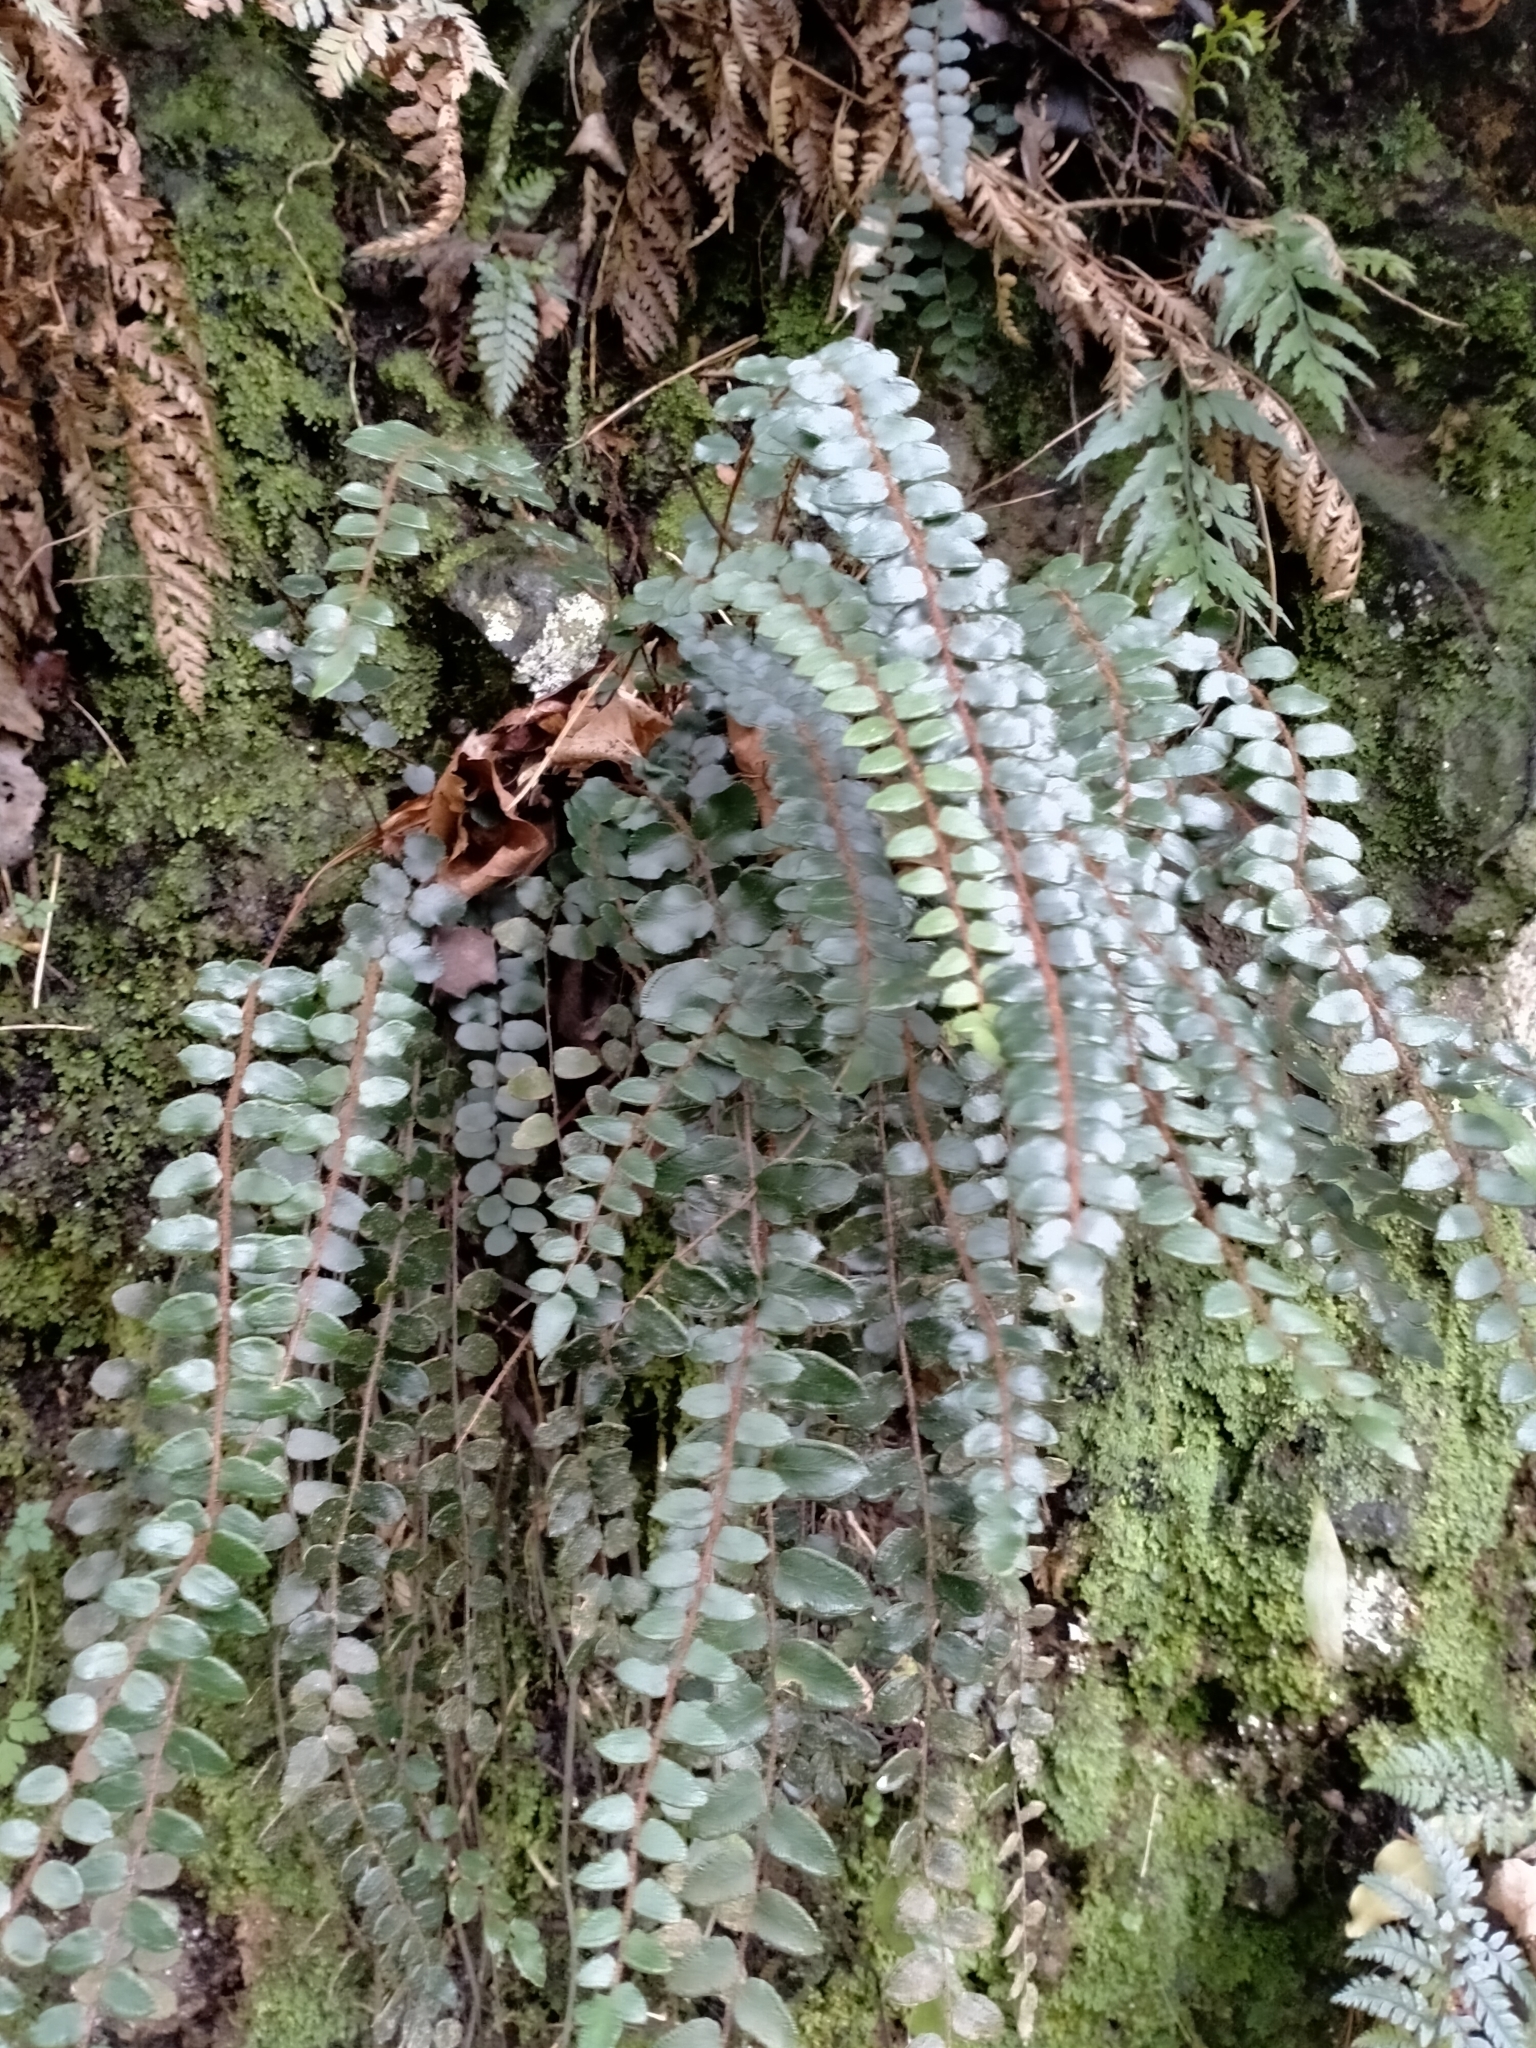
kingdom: Plantae
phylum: Tracheophyta
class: Polypodiopsida
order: Polypodiales
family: Pteridaceae
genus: Pellaea
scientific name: Pellaea rotundifolia
